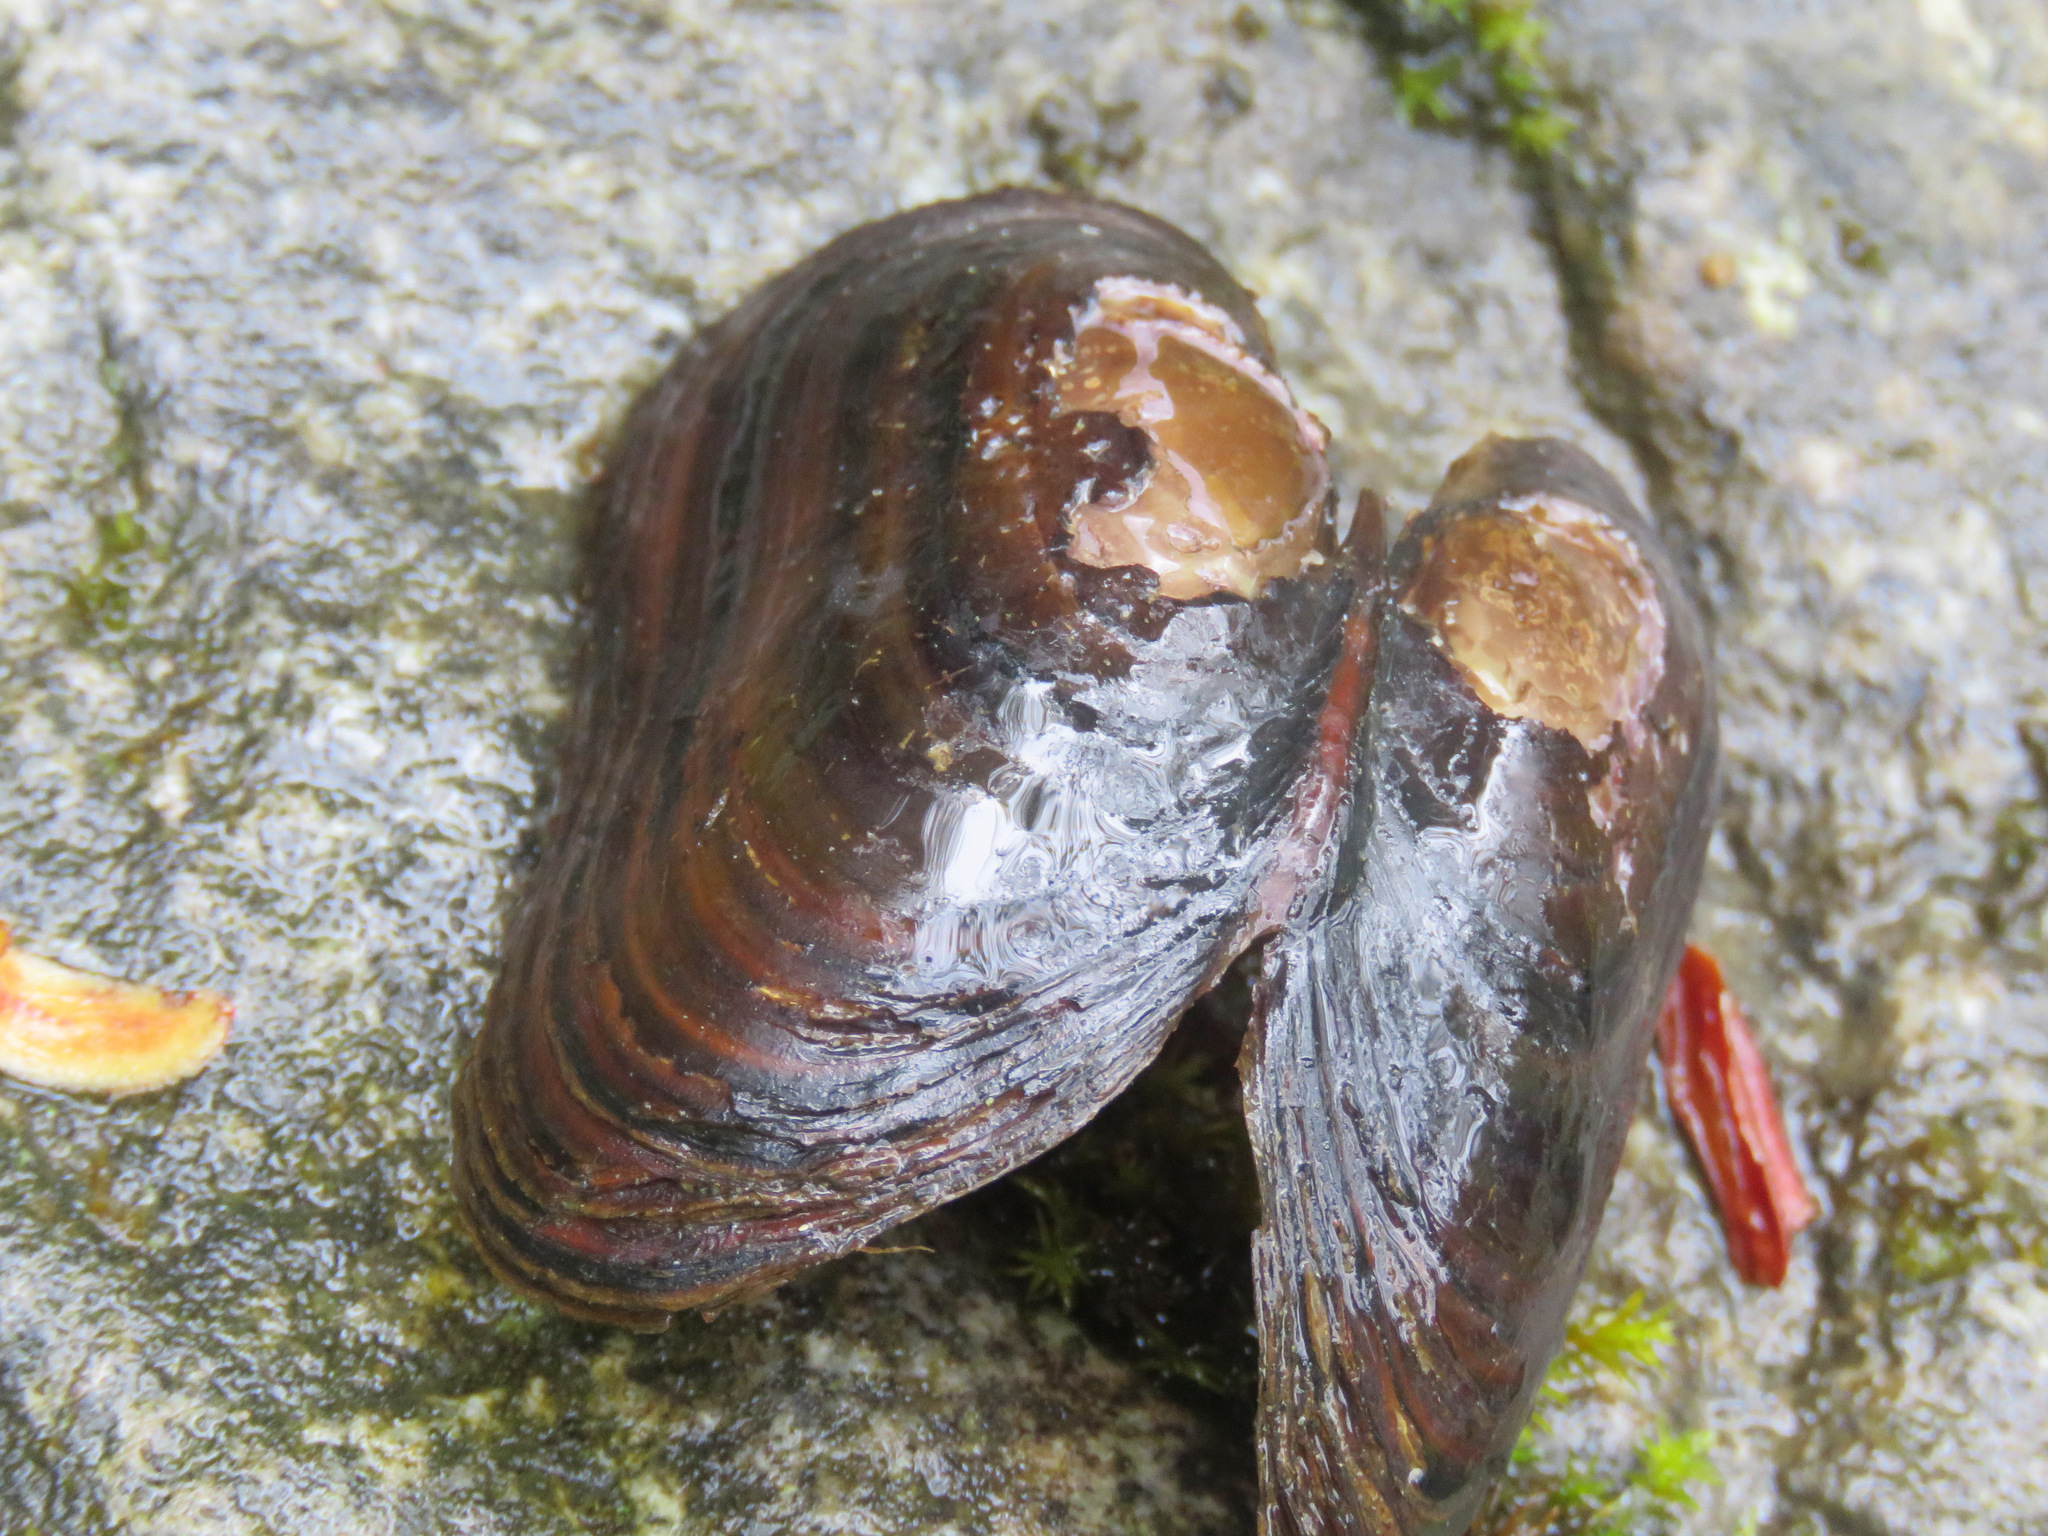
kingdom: Animalia
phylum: Mollusca
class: Bivalvia
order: Unionida
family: Margaritiferidae
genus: Margaritifera
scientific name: Margaritifera falcata
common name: Western pearlshell
